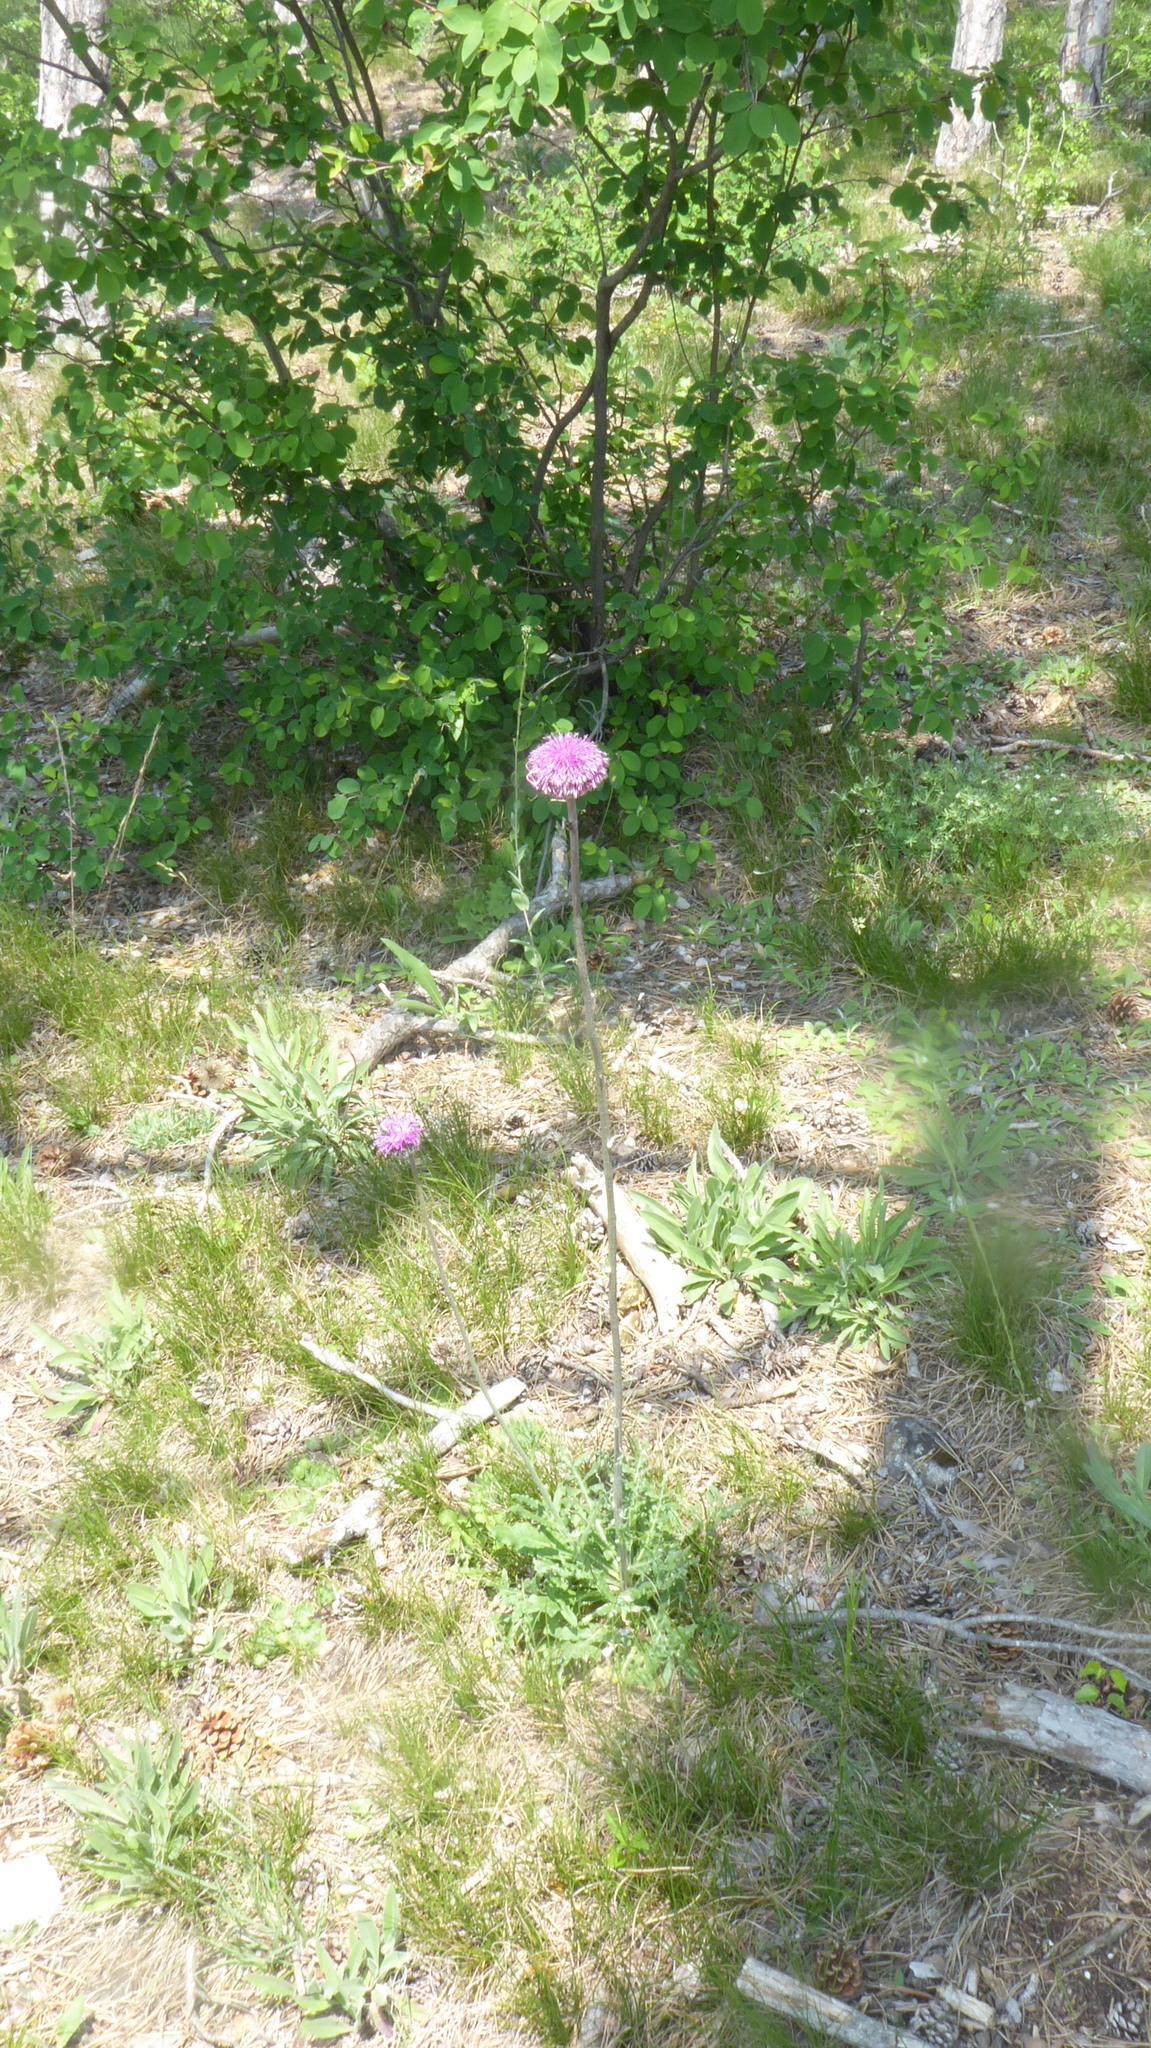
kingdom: Plantae
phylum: Tracheophyta
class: Magnoliopsida
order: Asterales
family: Asteraceae
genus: Jurinea
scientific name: Jurinea mollis
